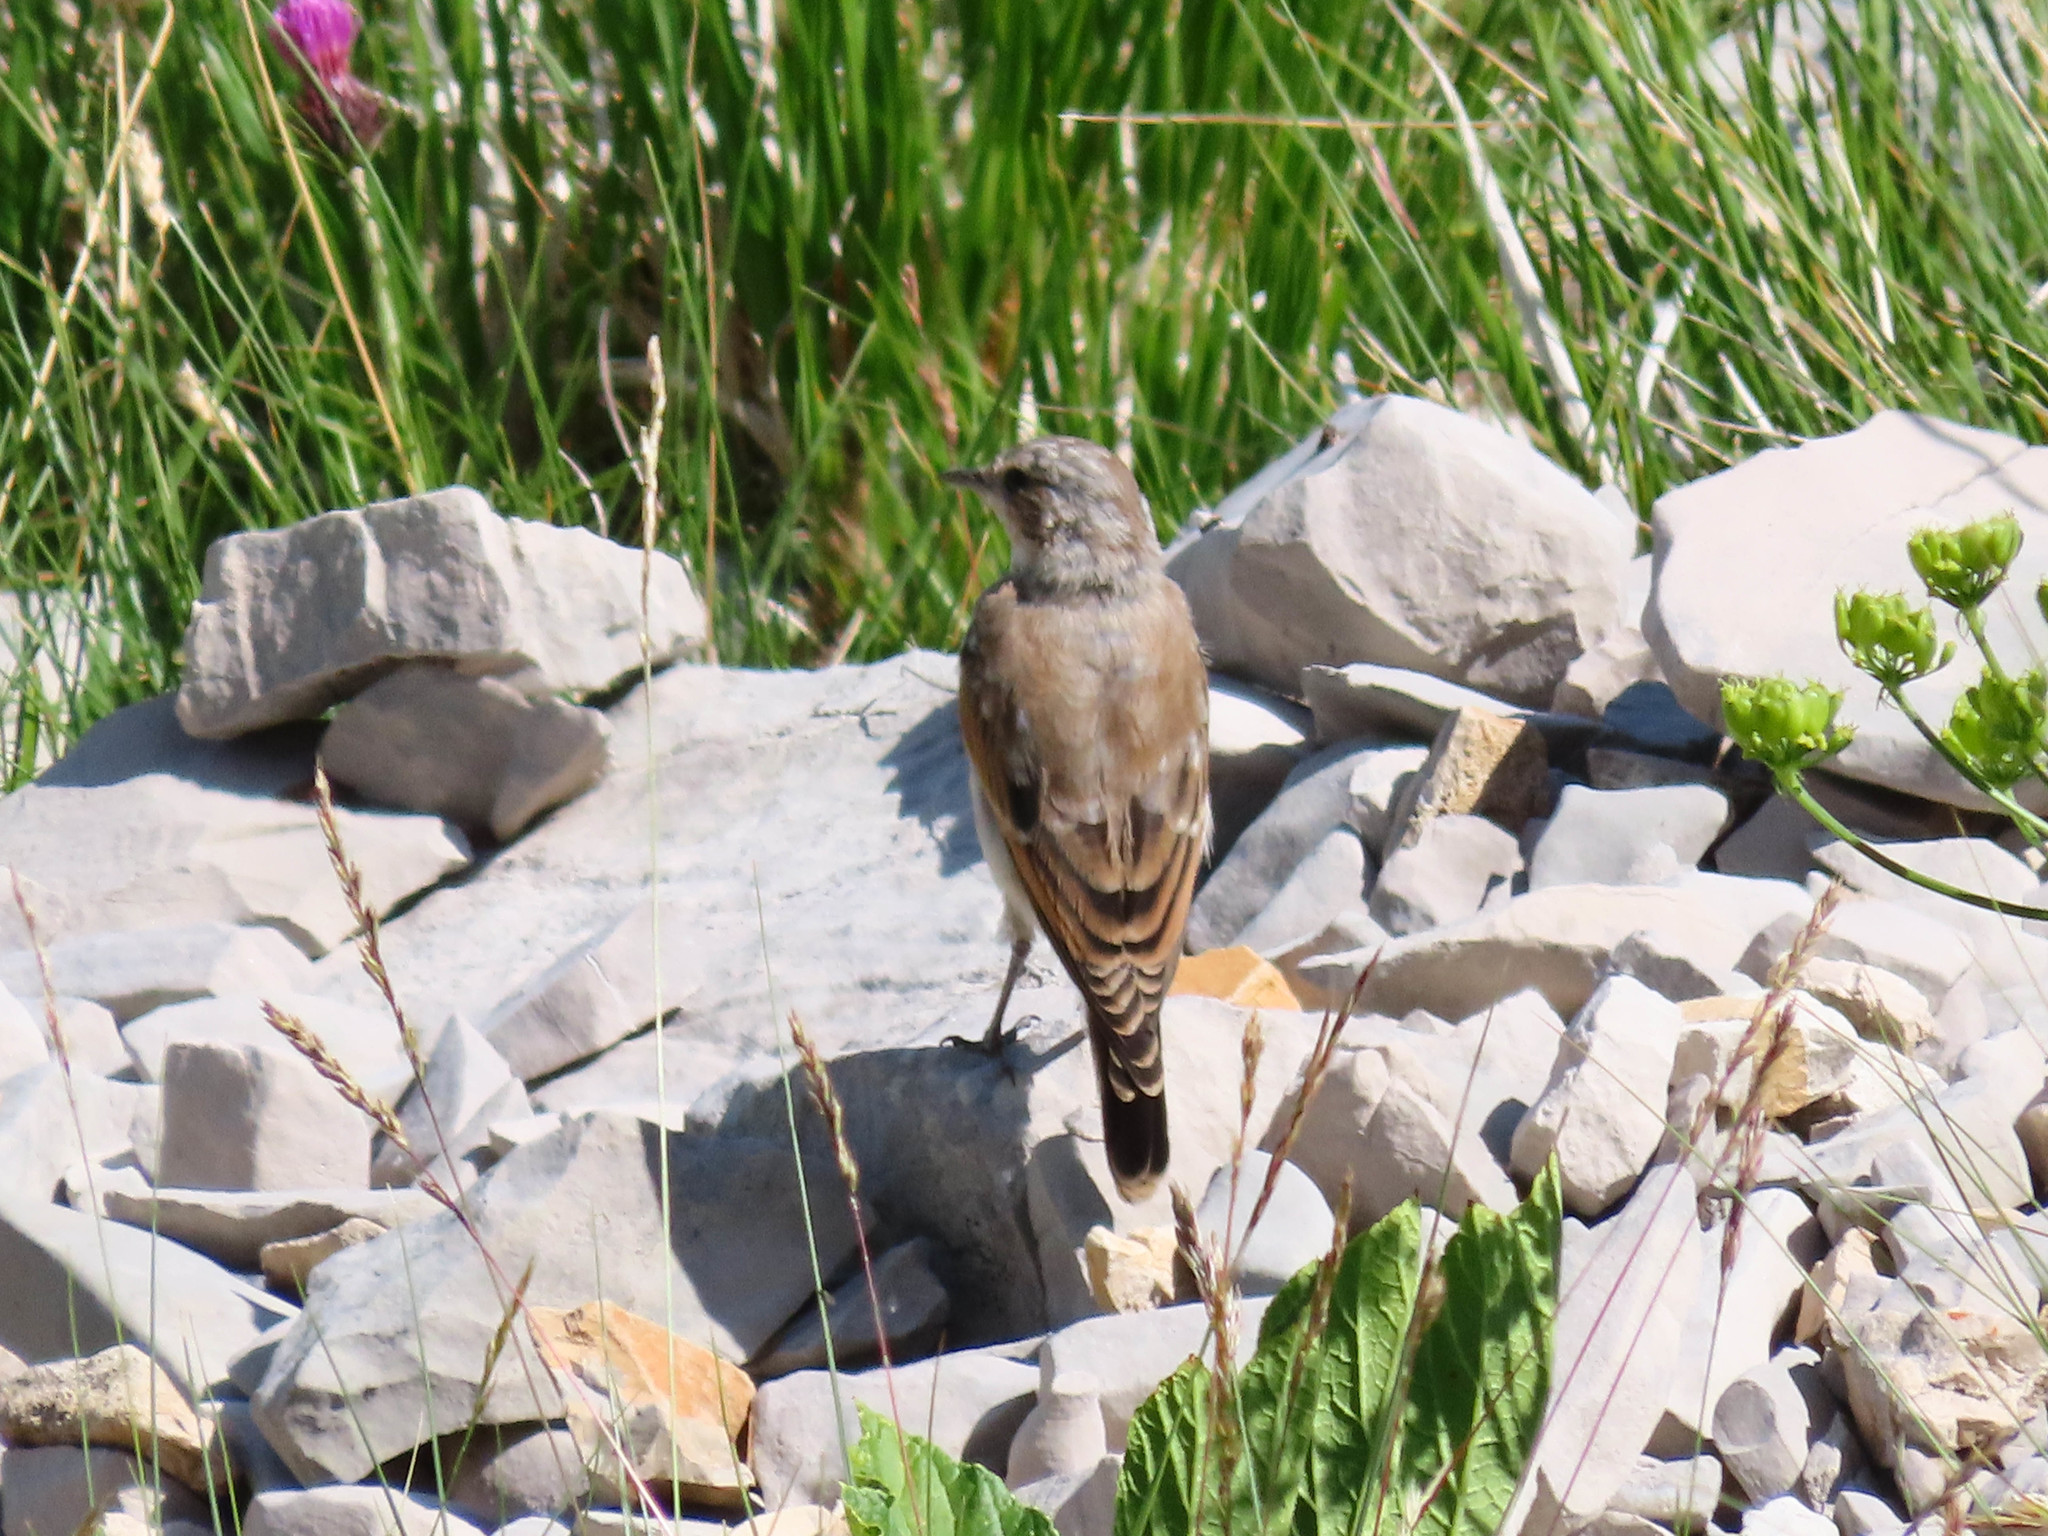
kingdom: Animalia
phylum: Chordata
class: Aves
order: Passeriformes
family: Muscicapidae
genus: Oenanthe
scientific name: Oenanthe oenanthe
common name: Northern wheatear
